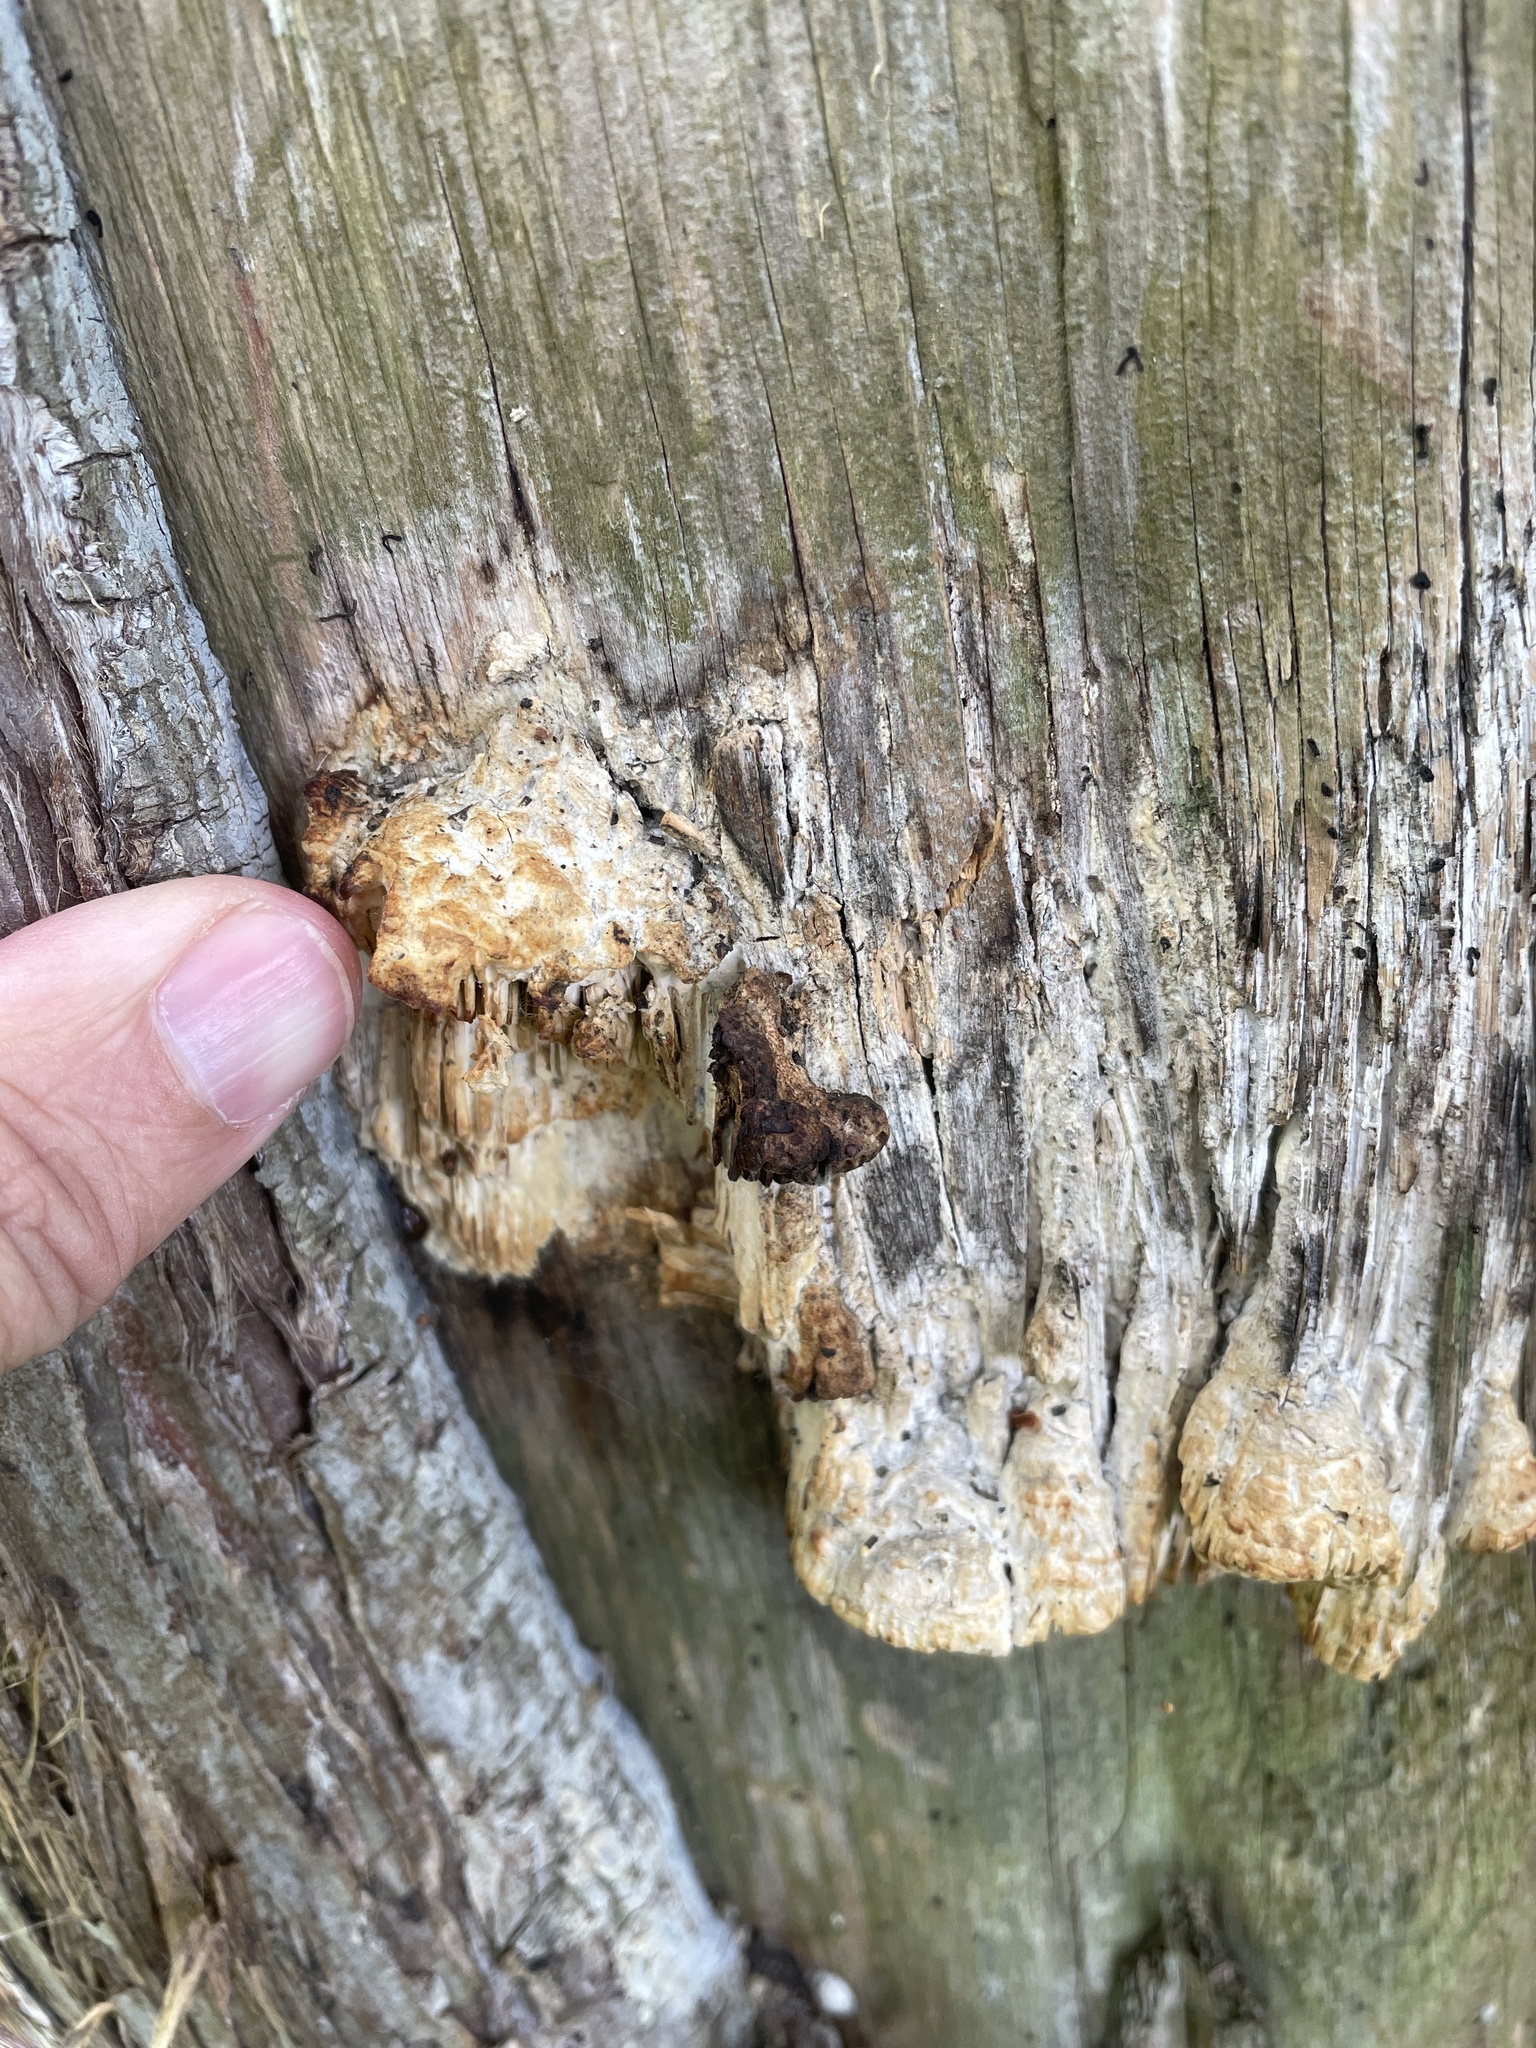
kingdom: Fungi
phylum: Basidiomycota
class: Agaricomycetes
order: Polyporales
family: Fomitopsidaceae
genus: Fomitopsis
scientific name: Fomitopsis
